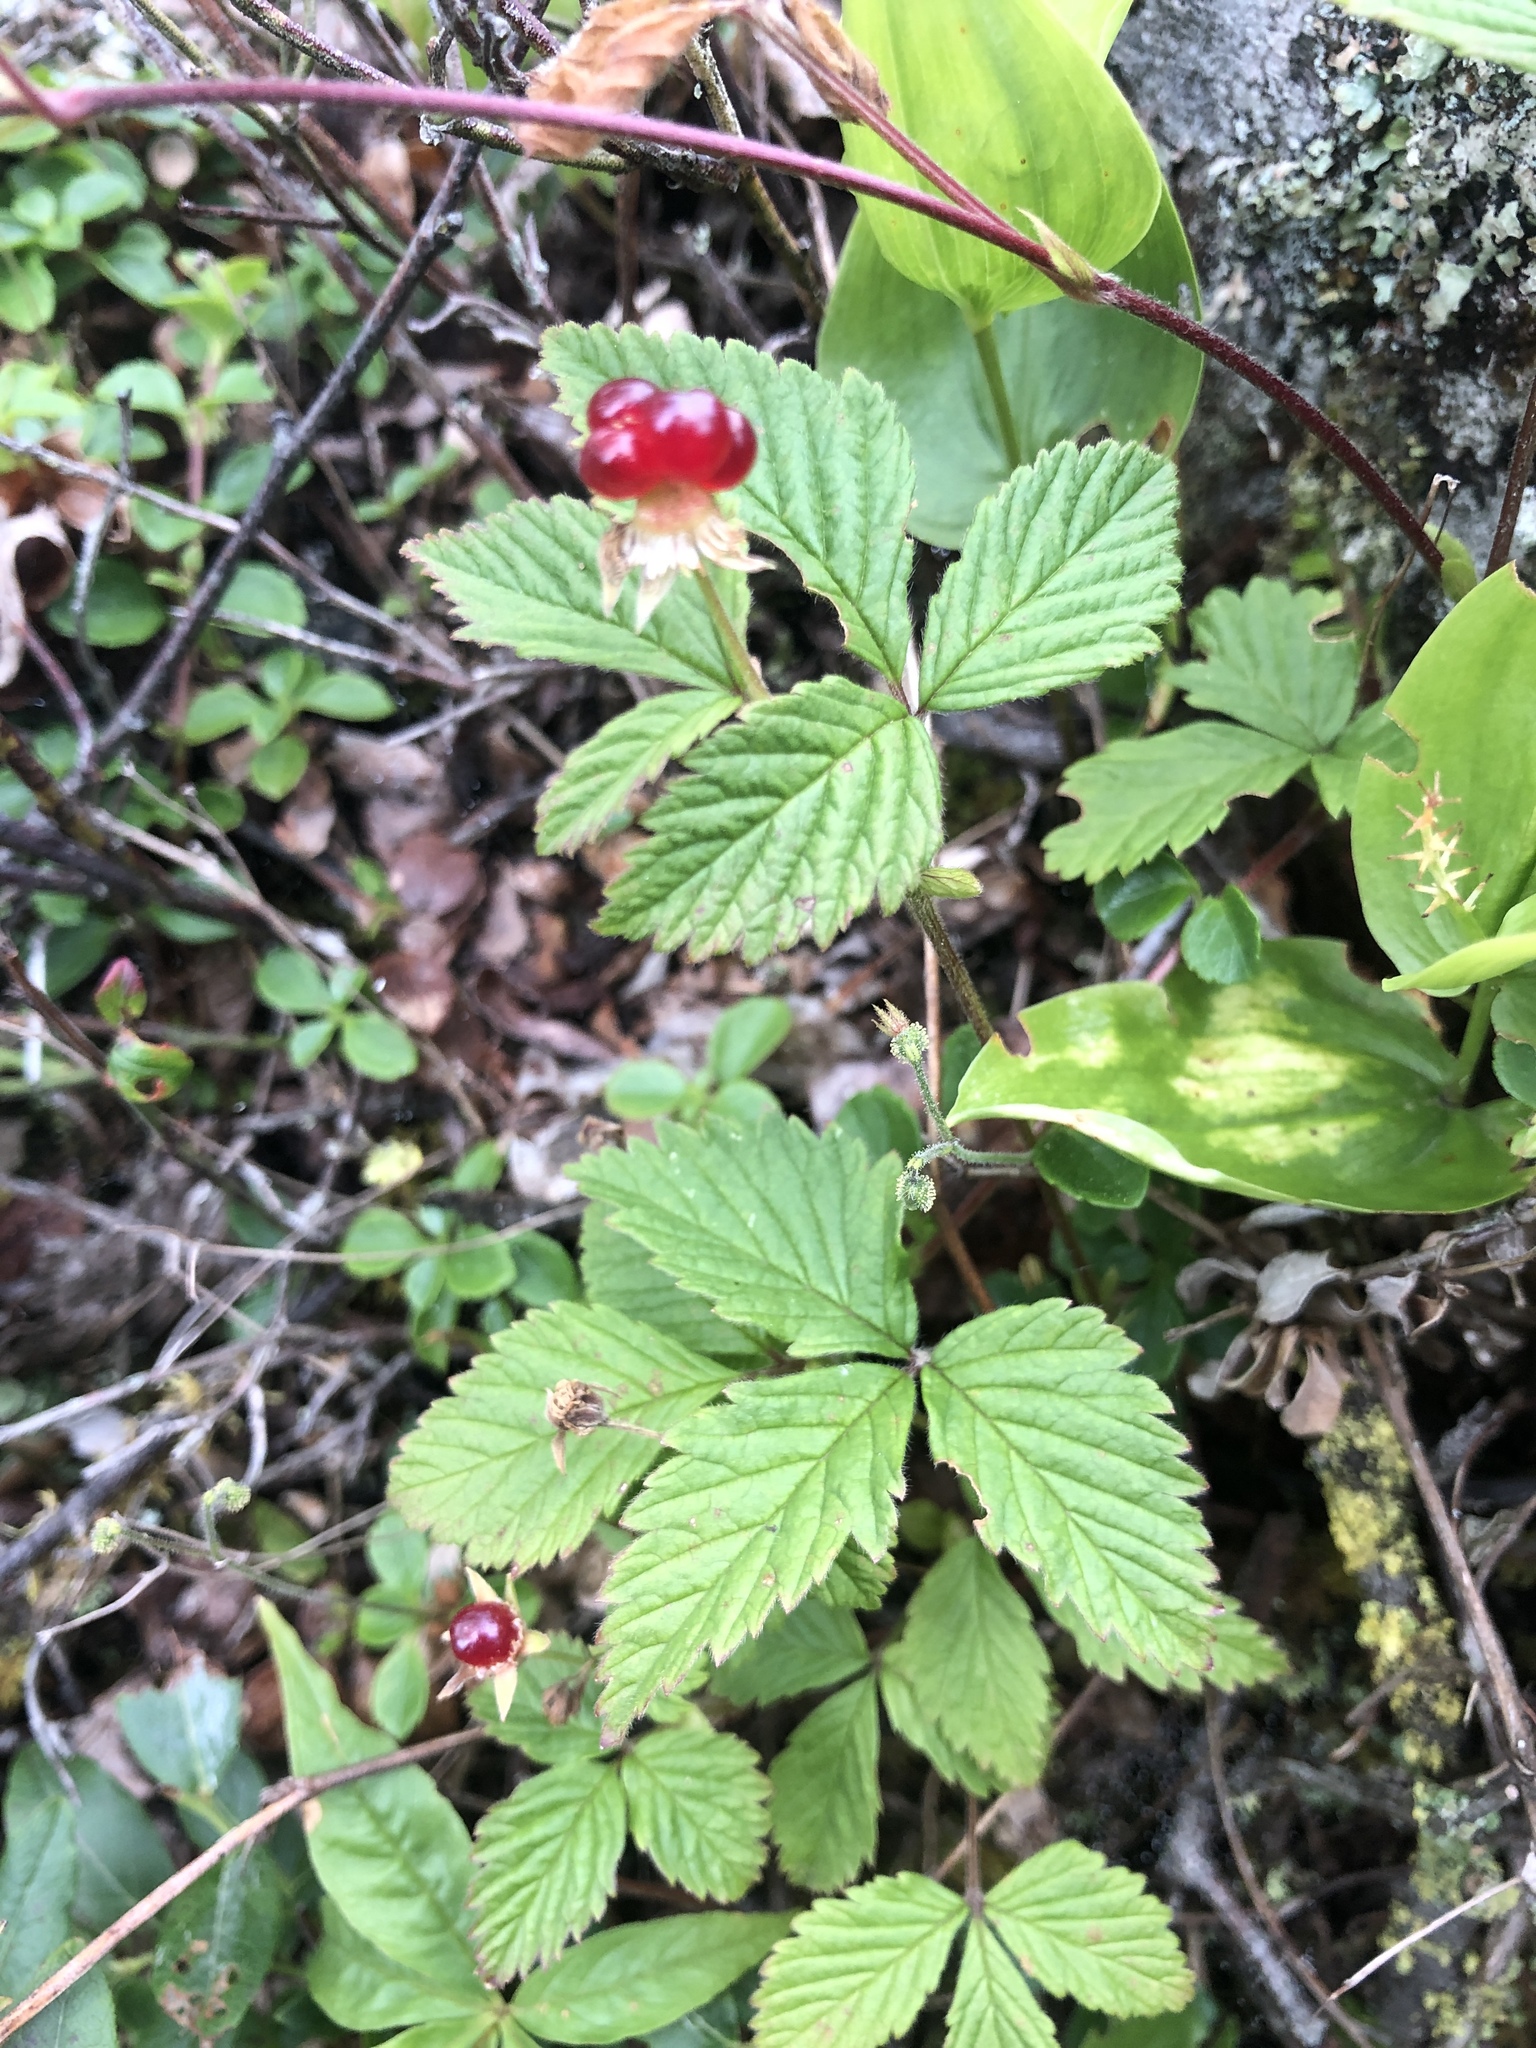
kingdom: Plantae
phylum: Tracheophyta
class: Magnoliopsida
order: Rosales
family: Rosaceae
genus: Rubus
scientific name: Rubus pubescens
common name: Dwarf raspberry
